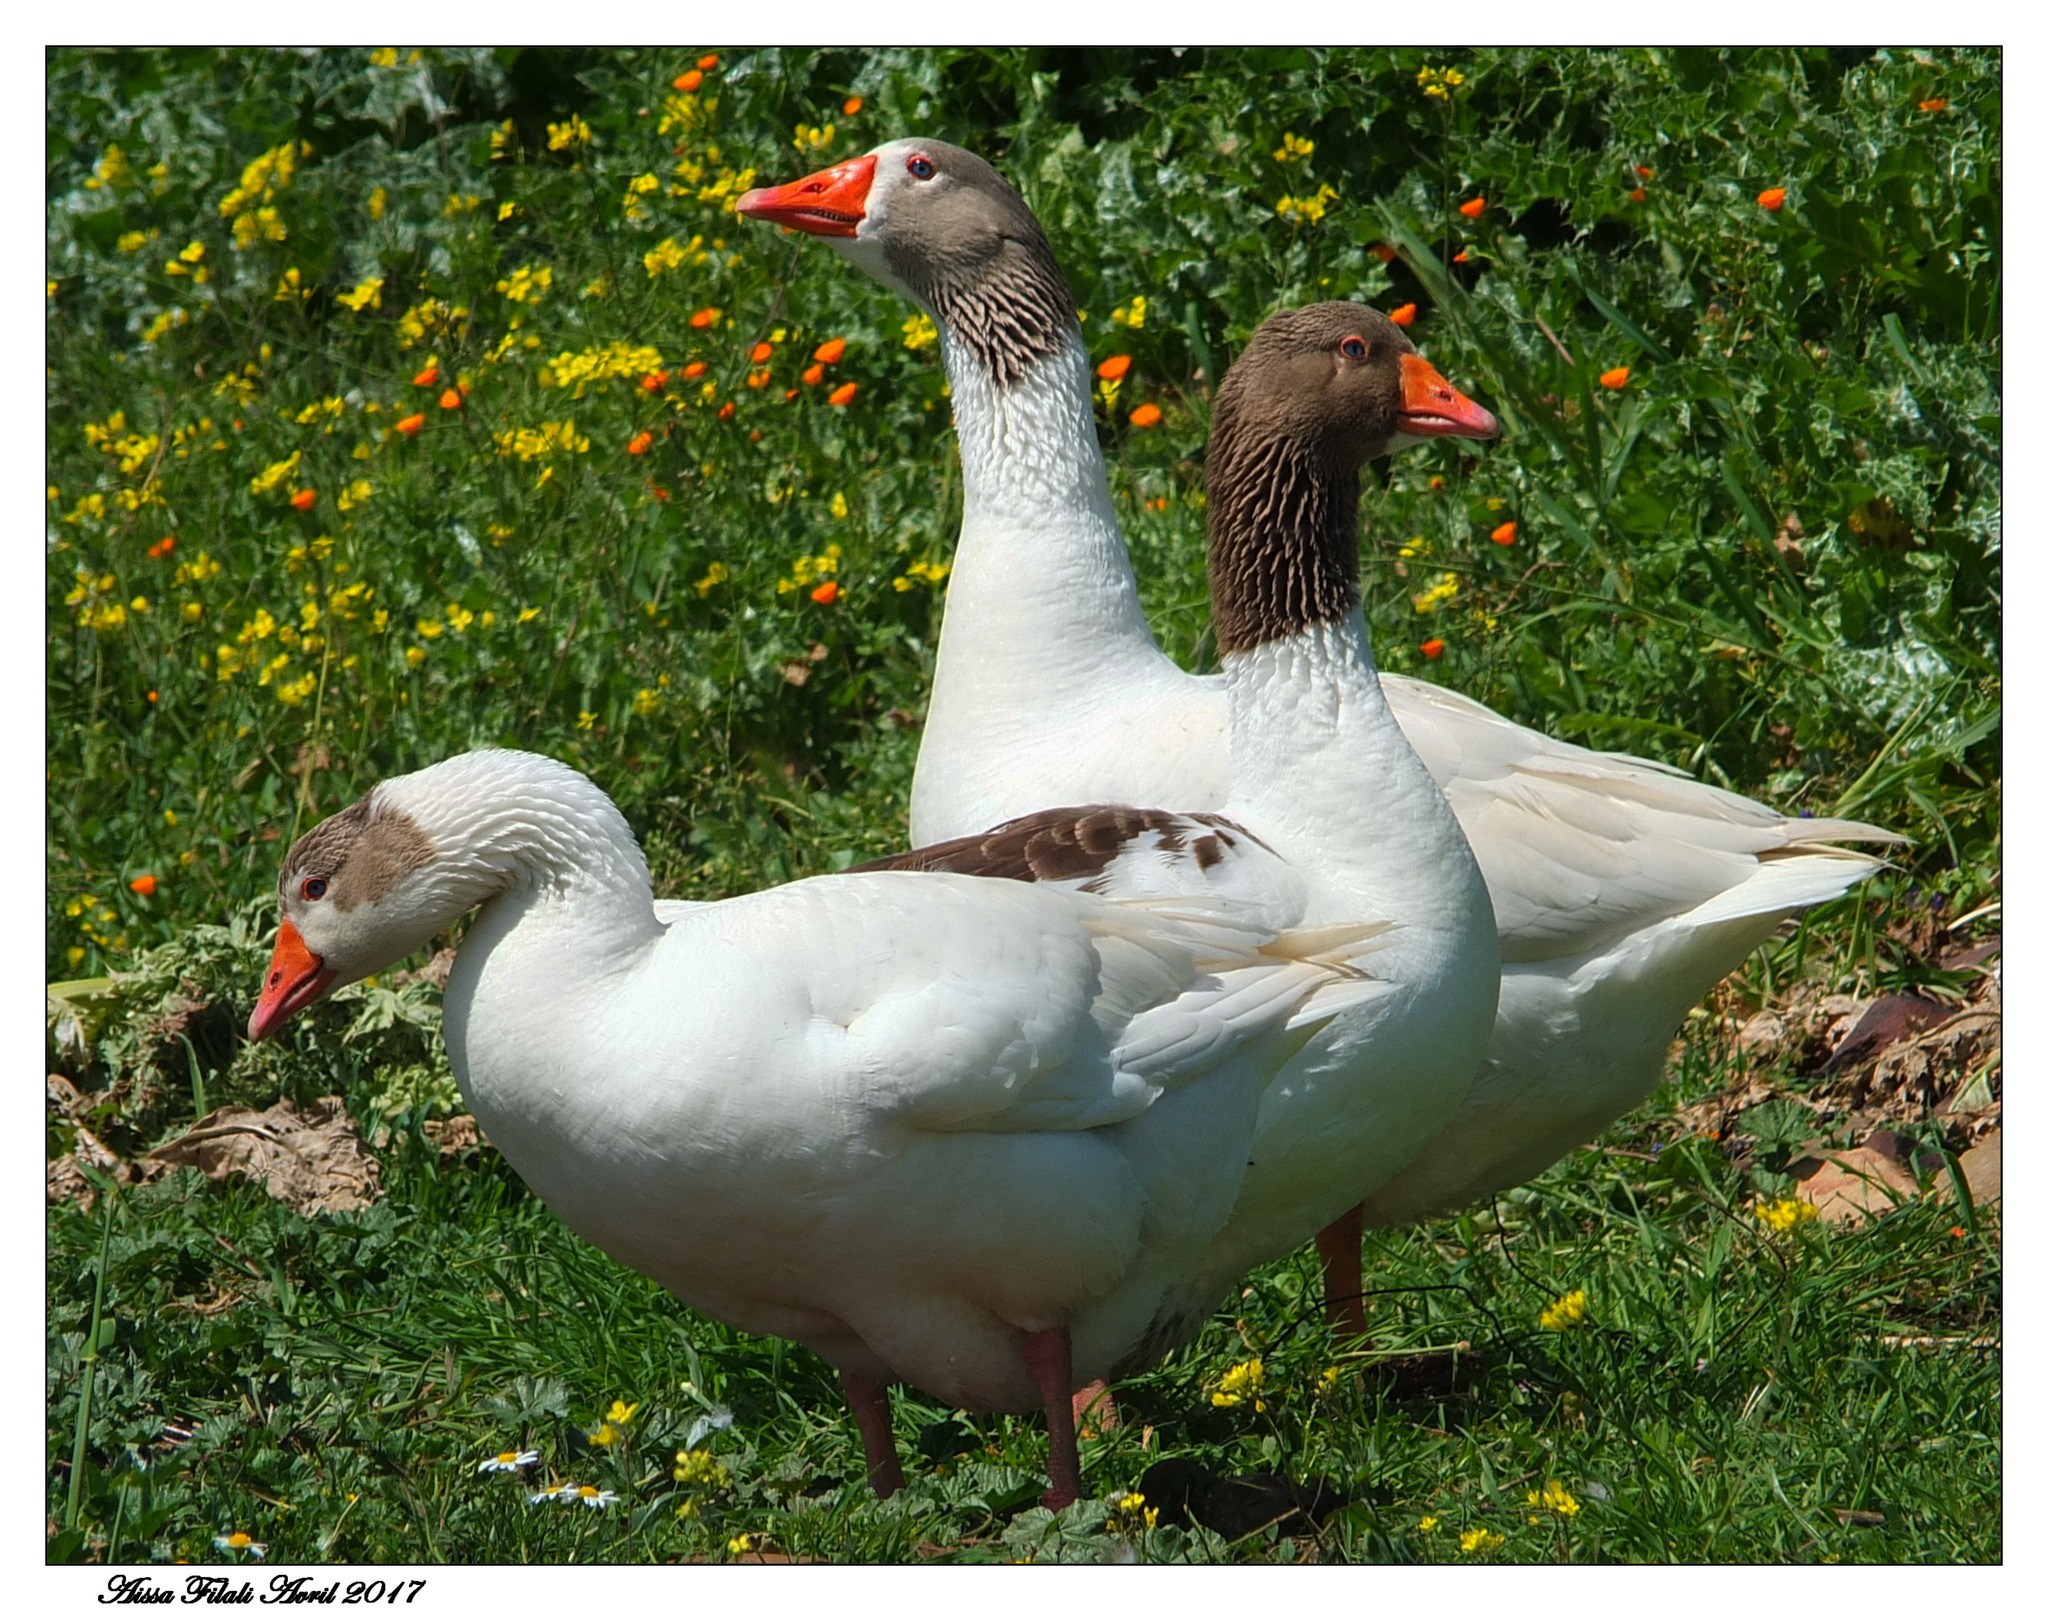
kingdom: Animalia
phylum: Chordata
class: Aves
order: Anseriformes
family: Anatidae
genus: Anser
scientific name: Anser anser
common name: Greylag goose
